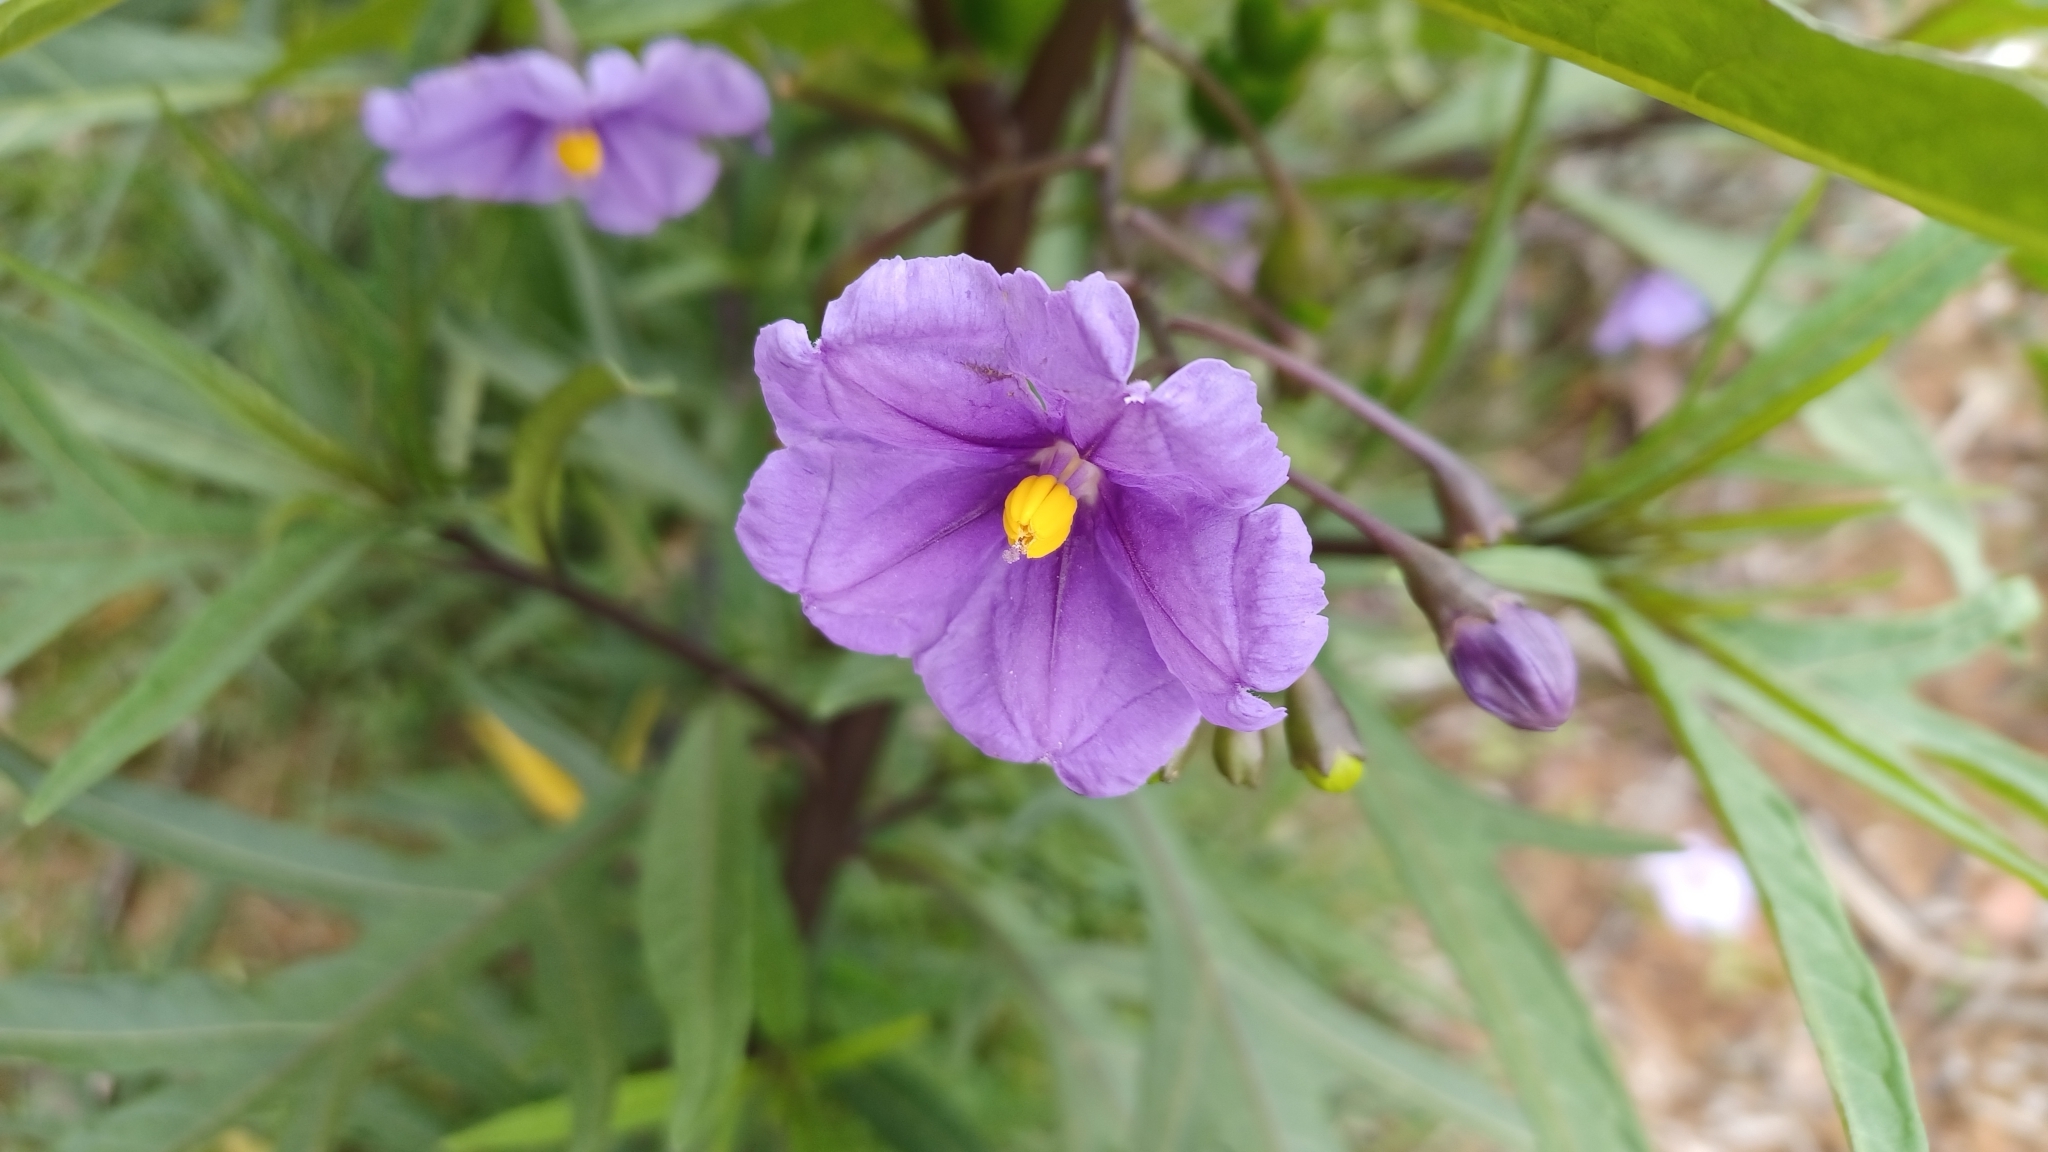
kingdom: Plantae
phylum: Tracheophyta
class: Magnoliopsida
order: Solanales
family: Solanaceae
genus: Solanum
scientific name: Solanum laciniatum
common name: Kangaroo-apple
